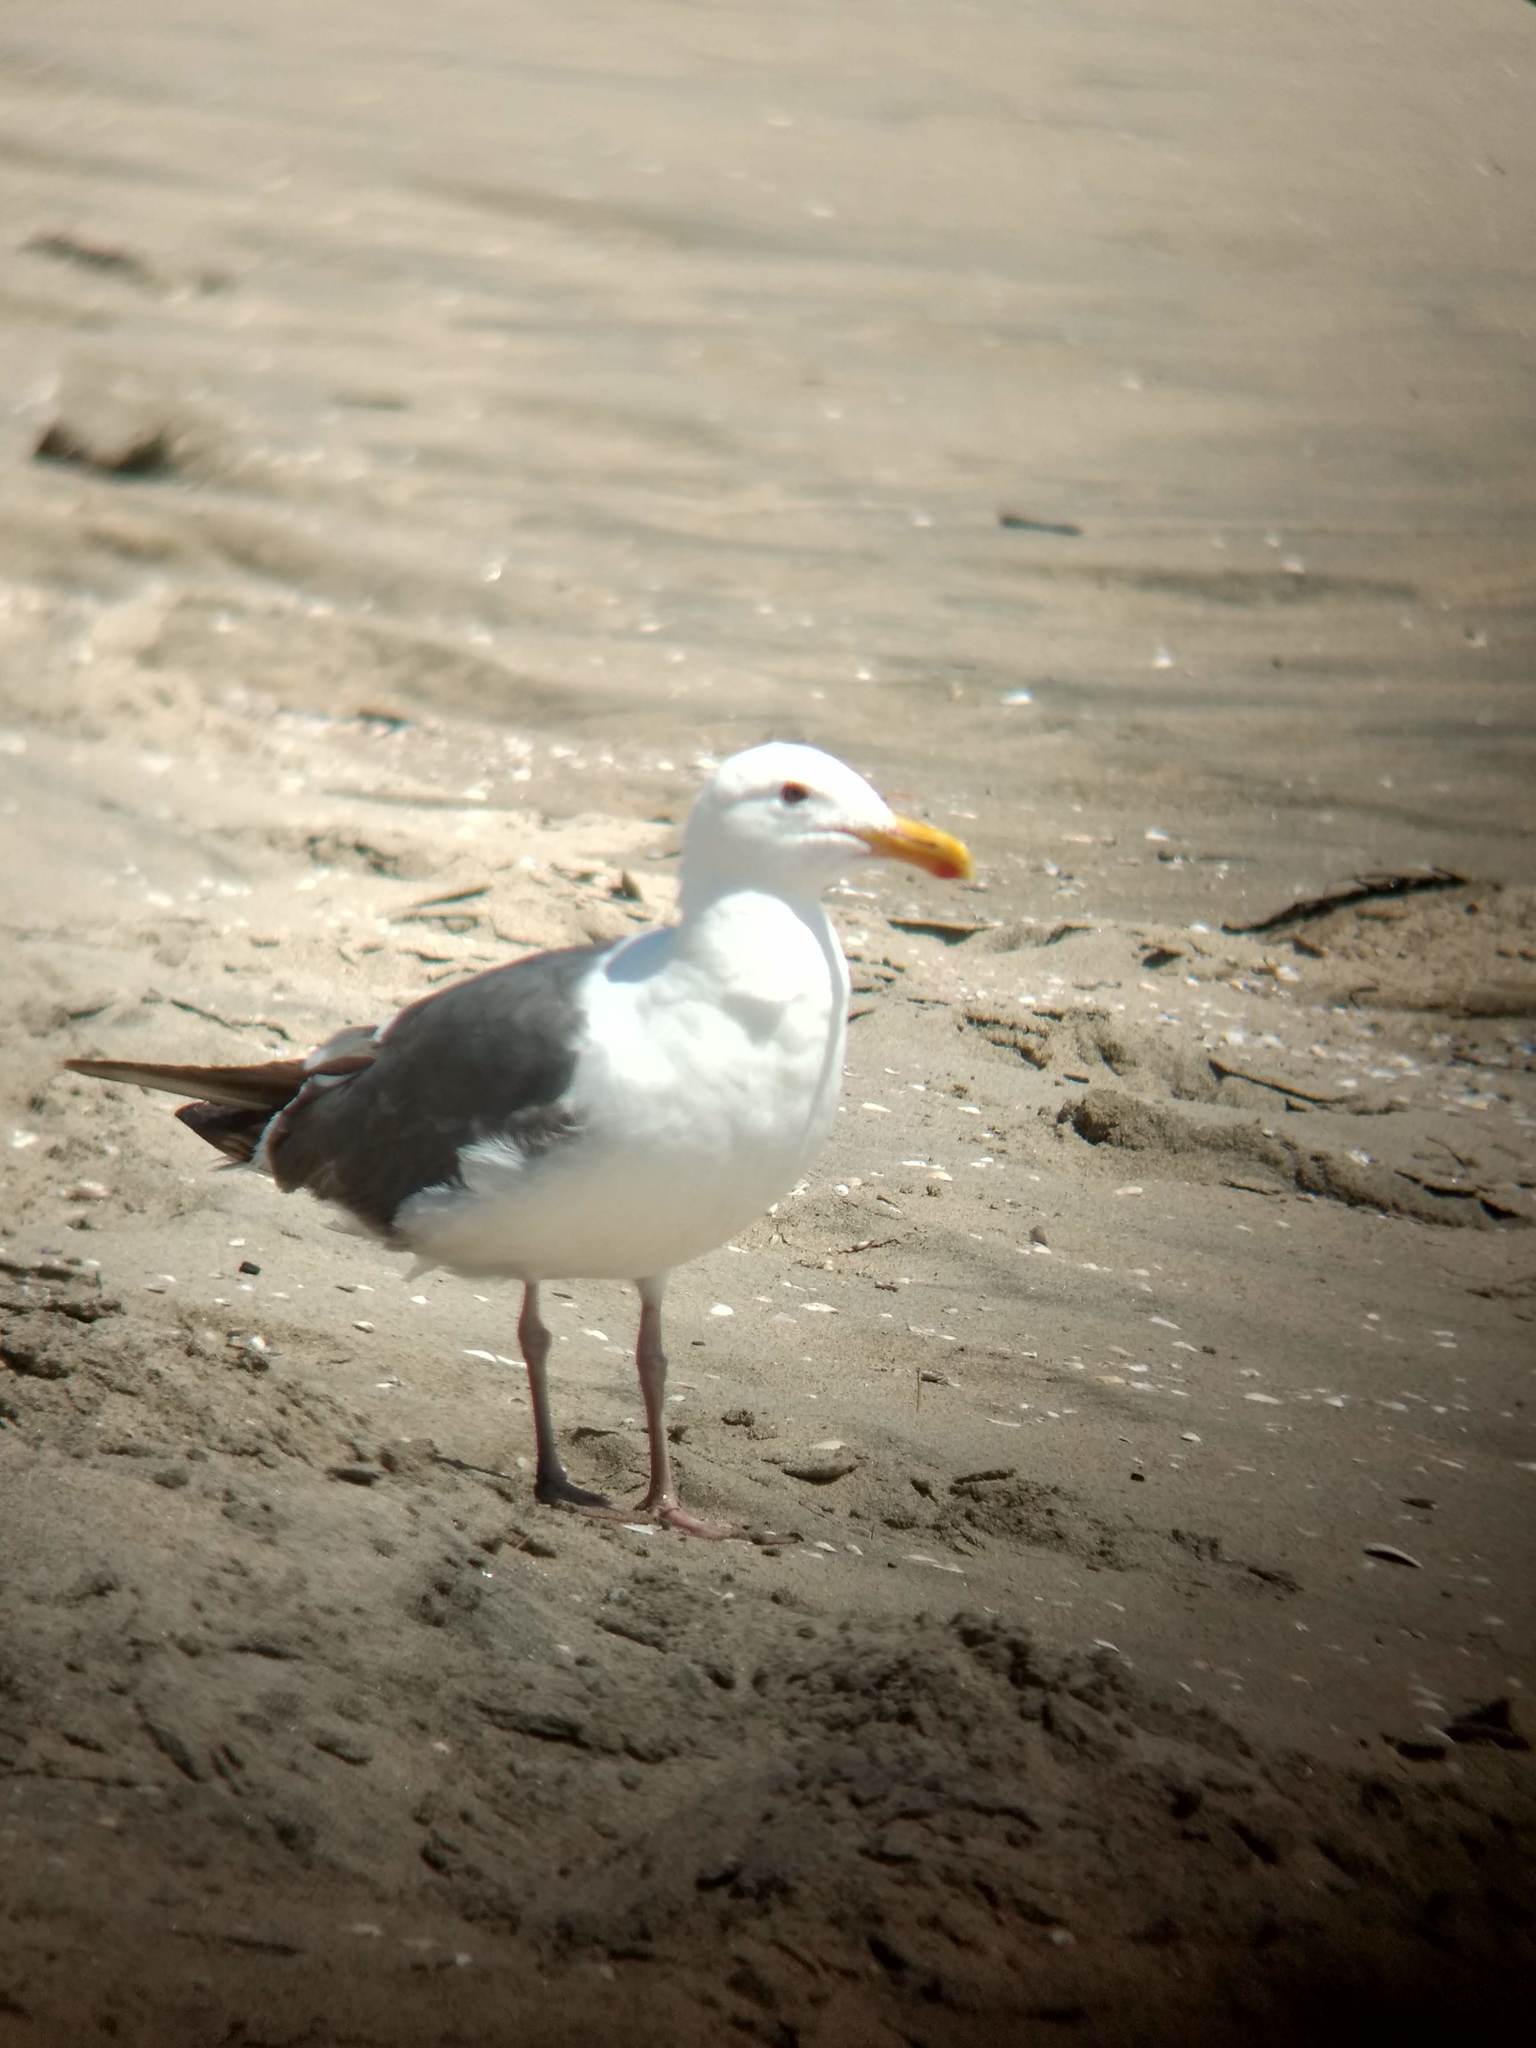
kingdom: Animalia
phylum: Chordata
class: Aves
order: Charadriiformes
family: Laridae
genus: Larus
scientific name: Larus occidentalis
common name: Western gull
